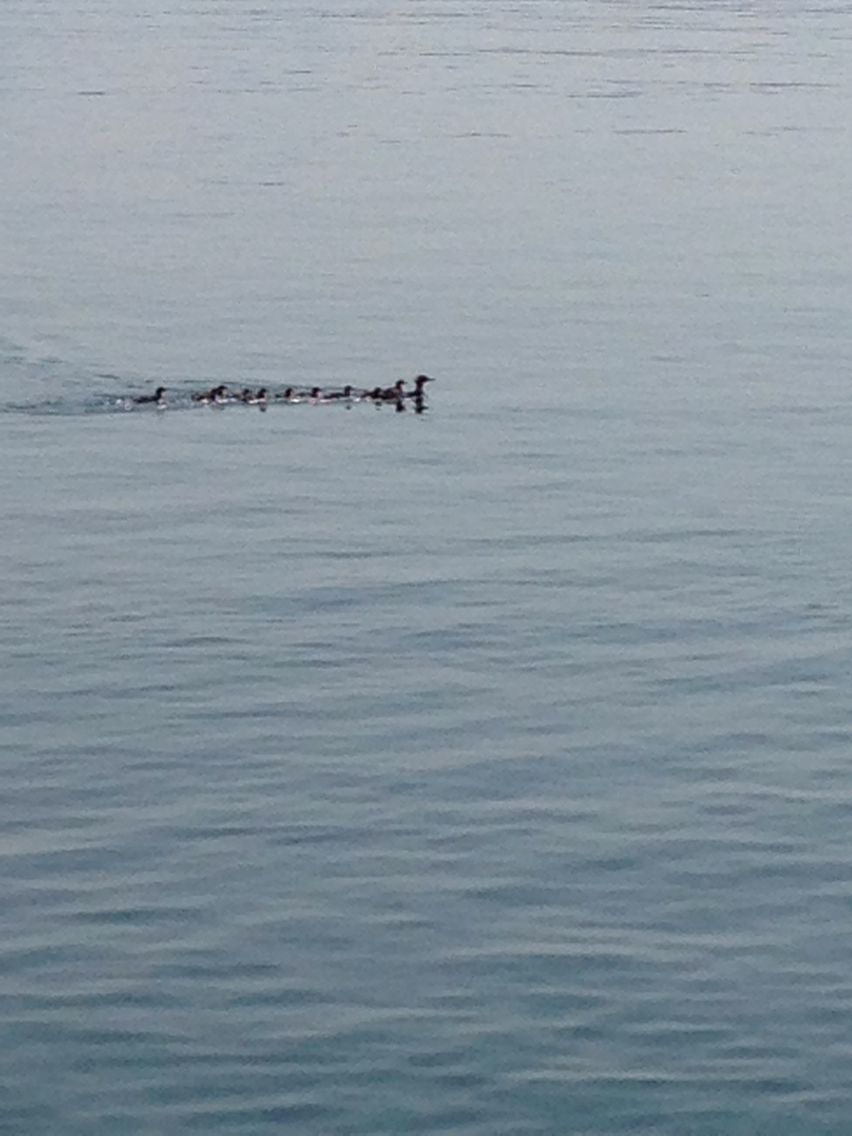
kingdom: Animalia
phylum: Chordata
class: Aves
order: Anseriformes
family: Anatidae
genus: Mergus
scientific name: Mergus merganser
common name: Common merganser
